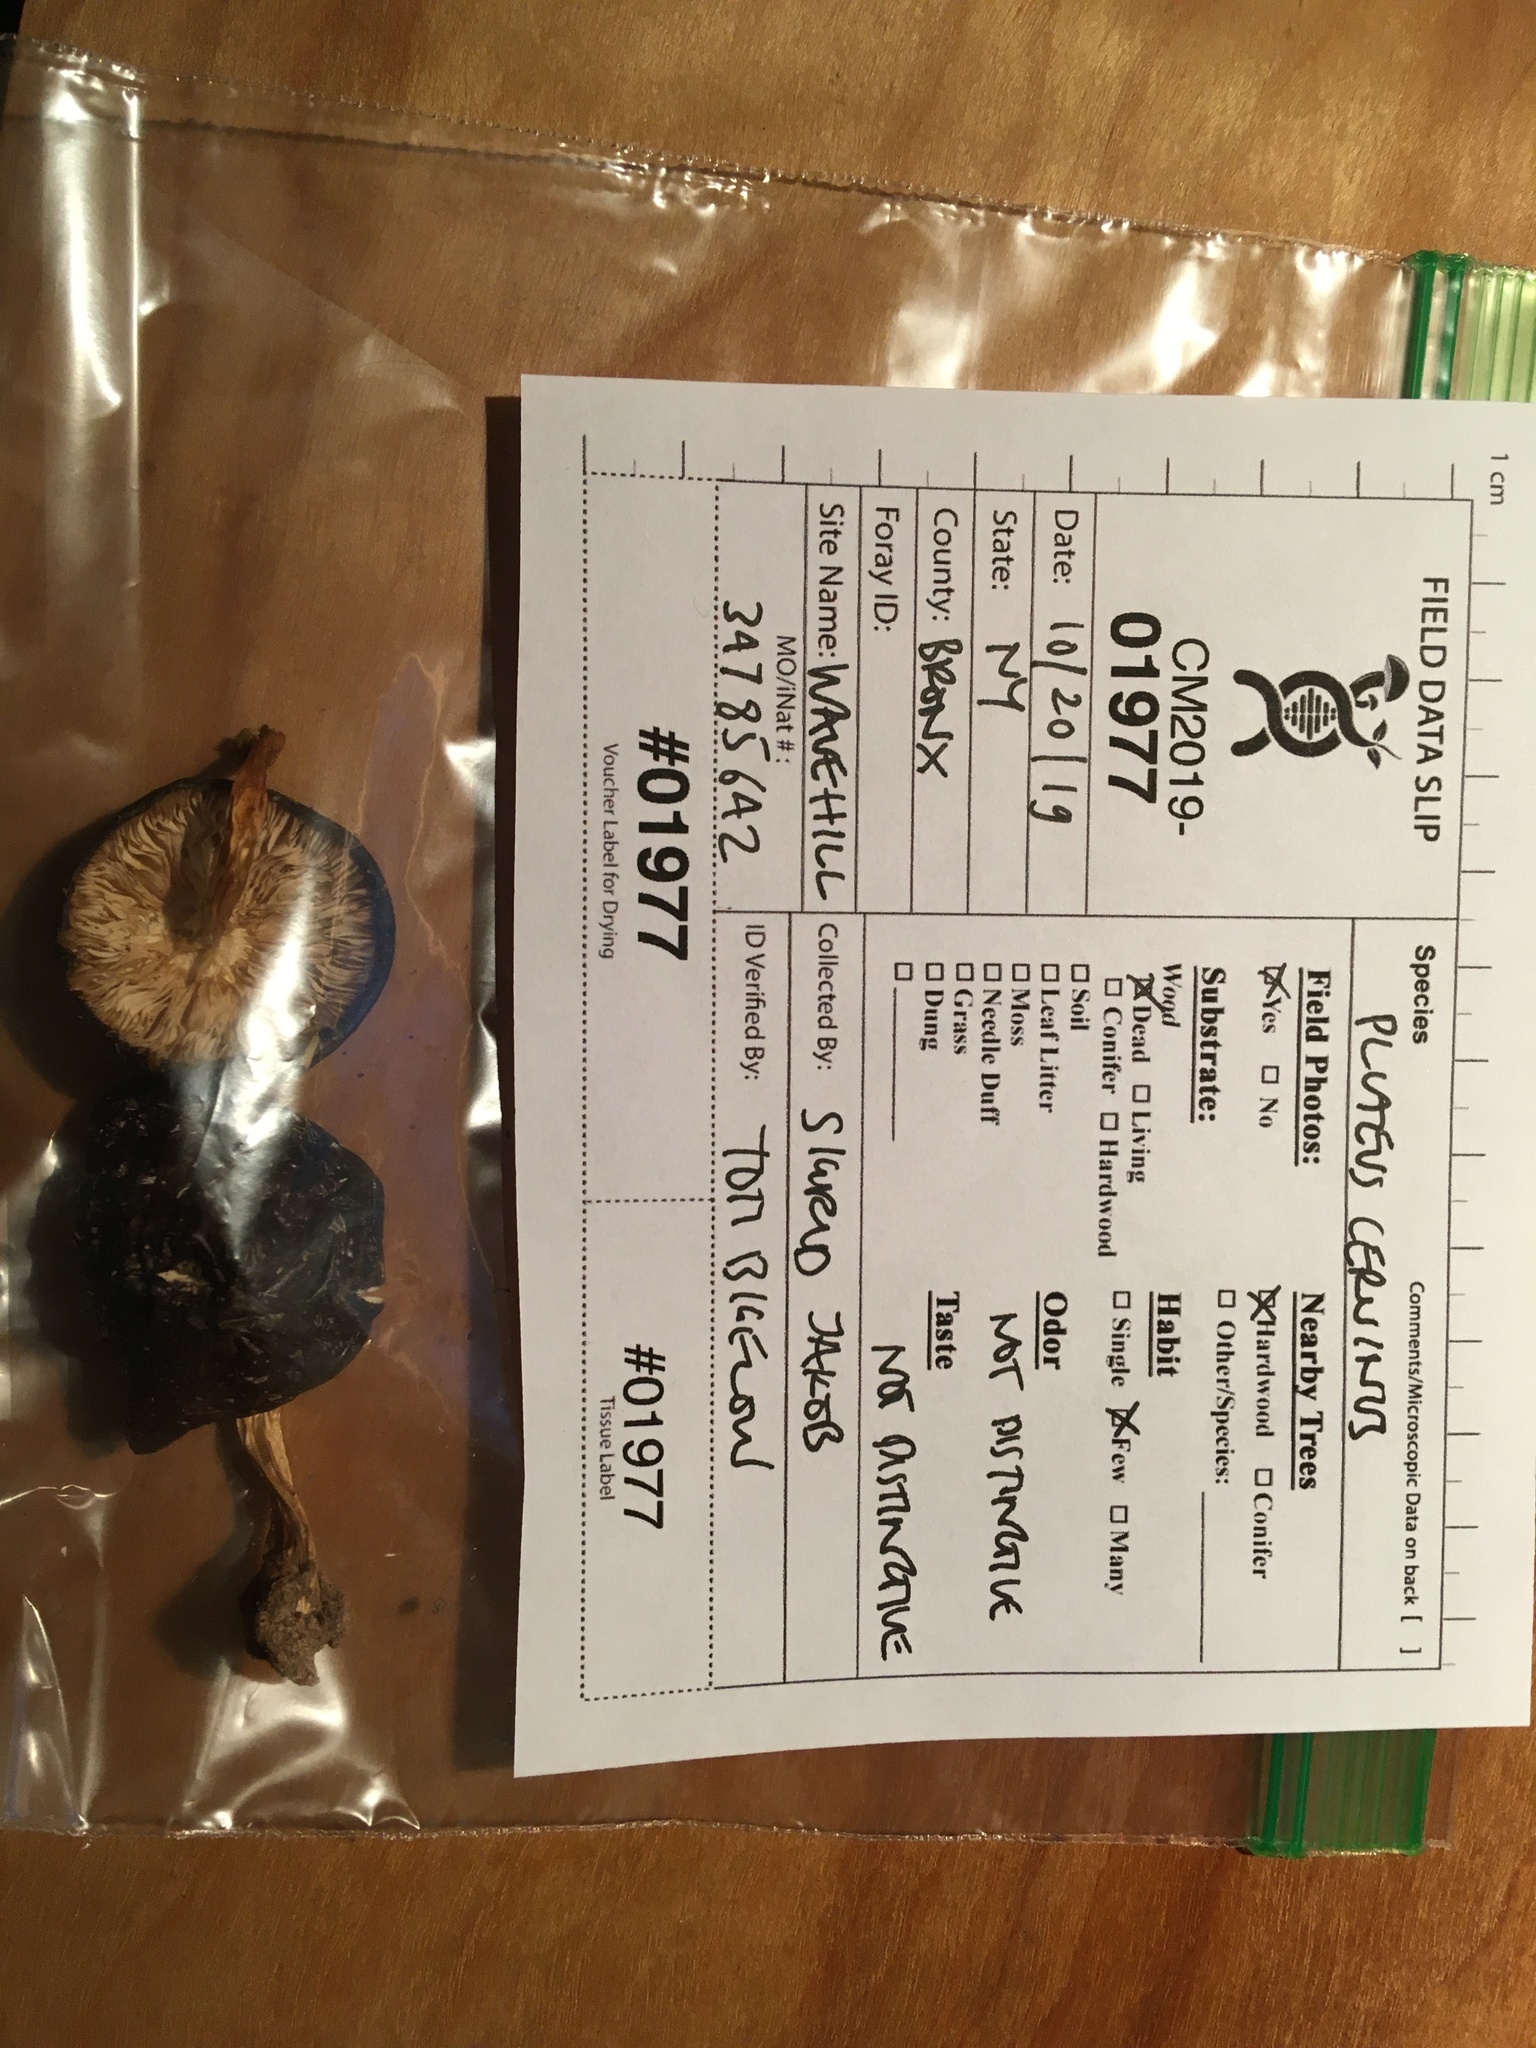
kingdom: Fungi
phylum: Basidiomycota
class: Agaricomycetes
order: Agaricales
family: Pluteaceae
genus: Pluteus
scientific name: Pluteus hongoi
